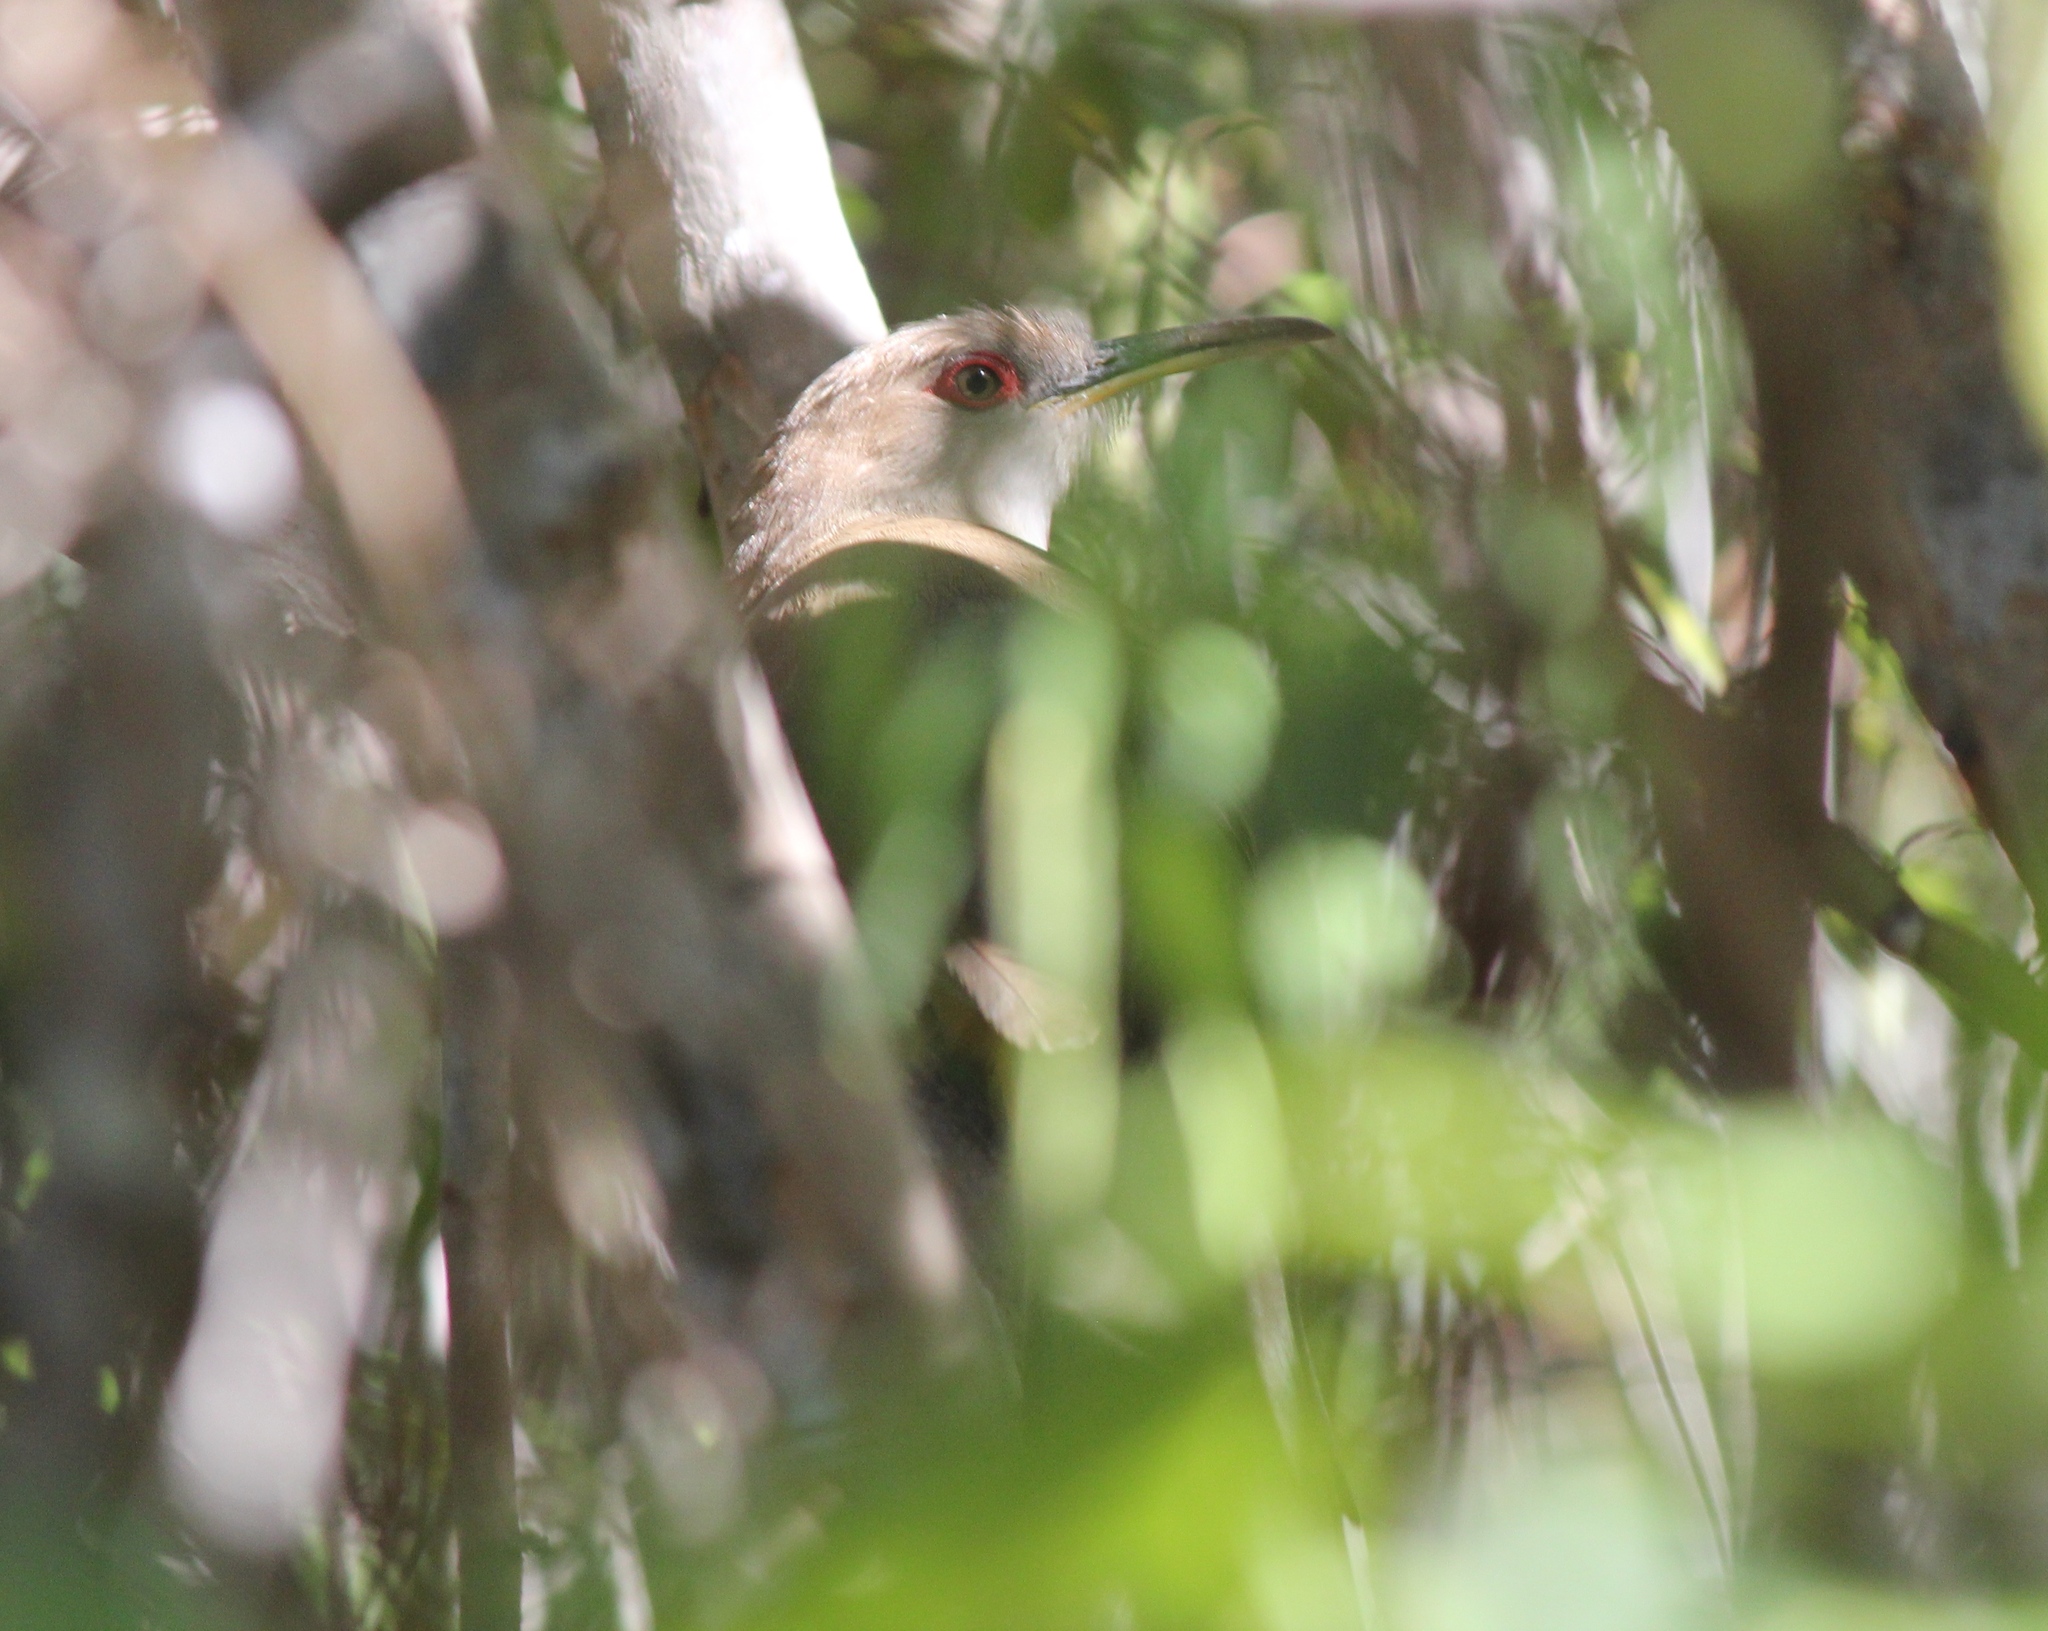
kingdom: Animalia
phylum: Chordata
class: Aves
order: Cuculiformes
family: Cuculidae
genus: Saurothera
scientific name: Saurothera vieilloti
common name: Puerto rican lizard-cuckoo
